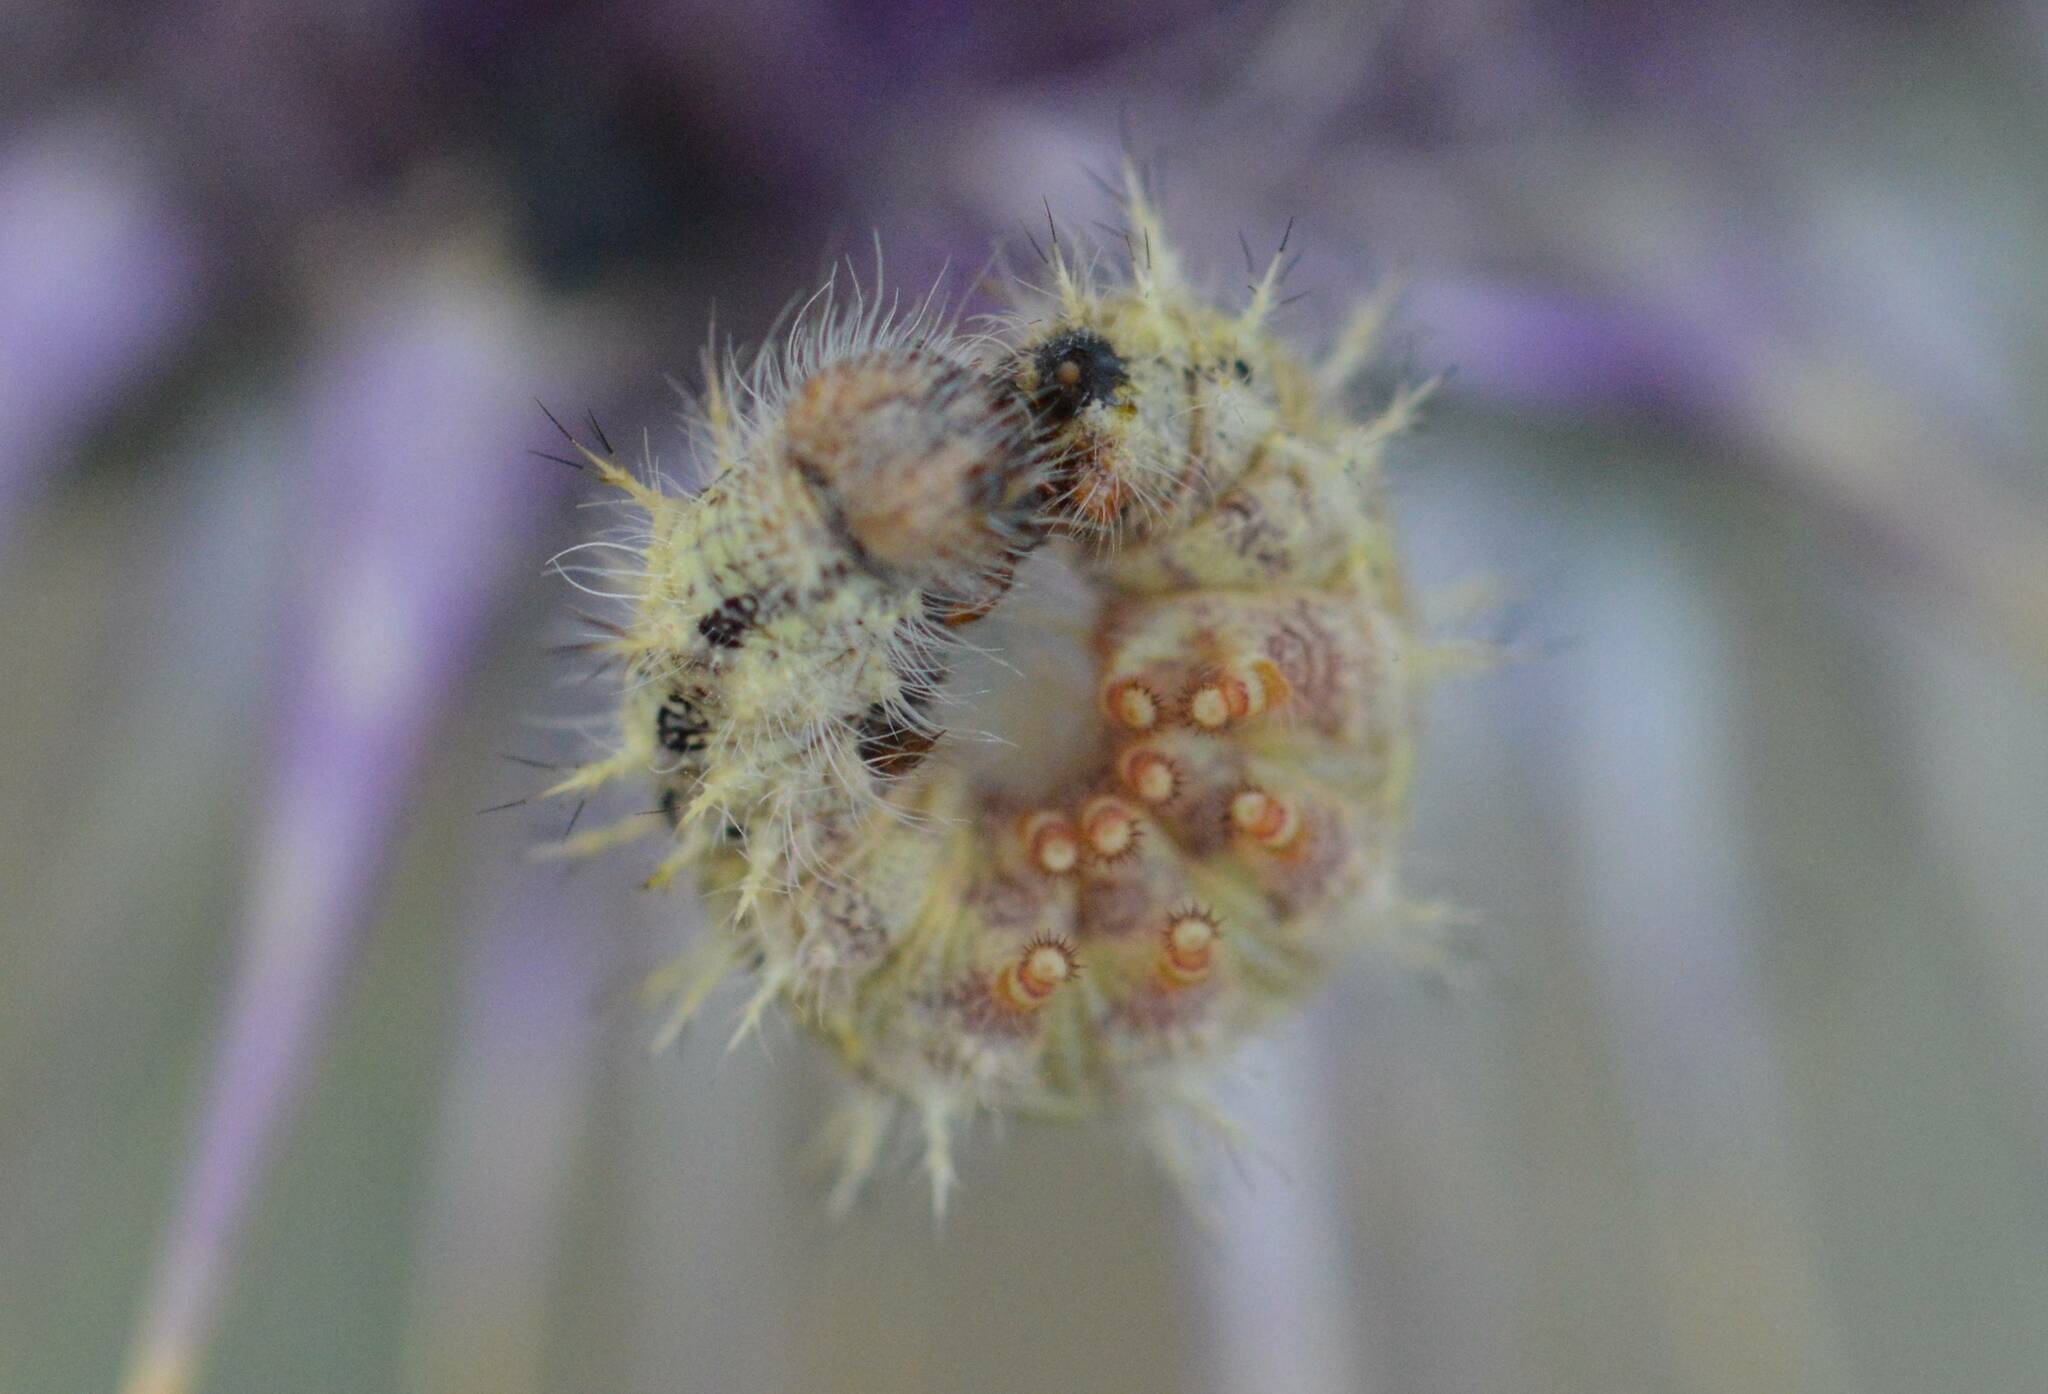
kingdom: Animalia
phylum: Arthropoda
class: Insecta
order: Lepidoptera
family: Nymphalidae
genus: Vanessa
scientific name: Vanessa cardui
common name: Painted lady
